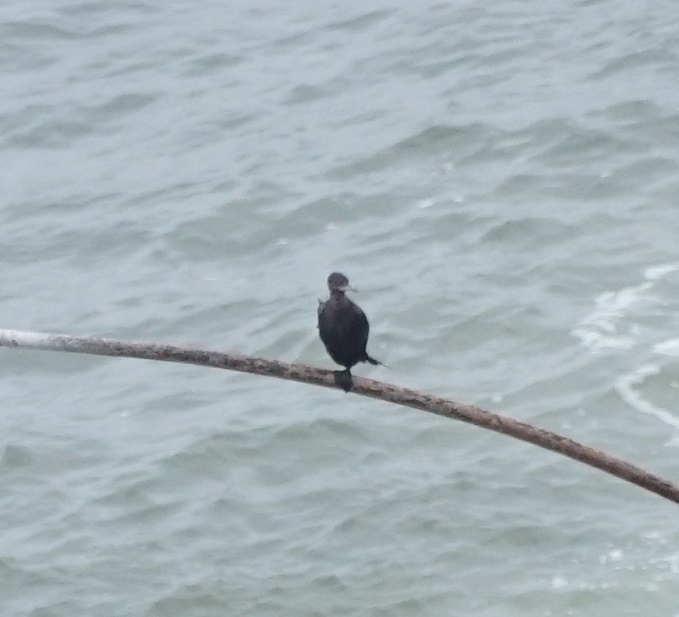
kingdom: Animalia
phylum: Chordata
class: Aves
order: Suliformes
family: Phalacrocoracidae
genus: Phalacrocorax
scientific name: Phalacrocorax brasilianus
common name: Neotropic cormorant
